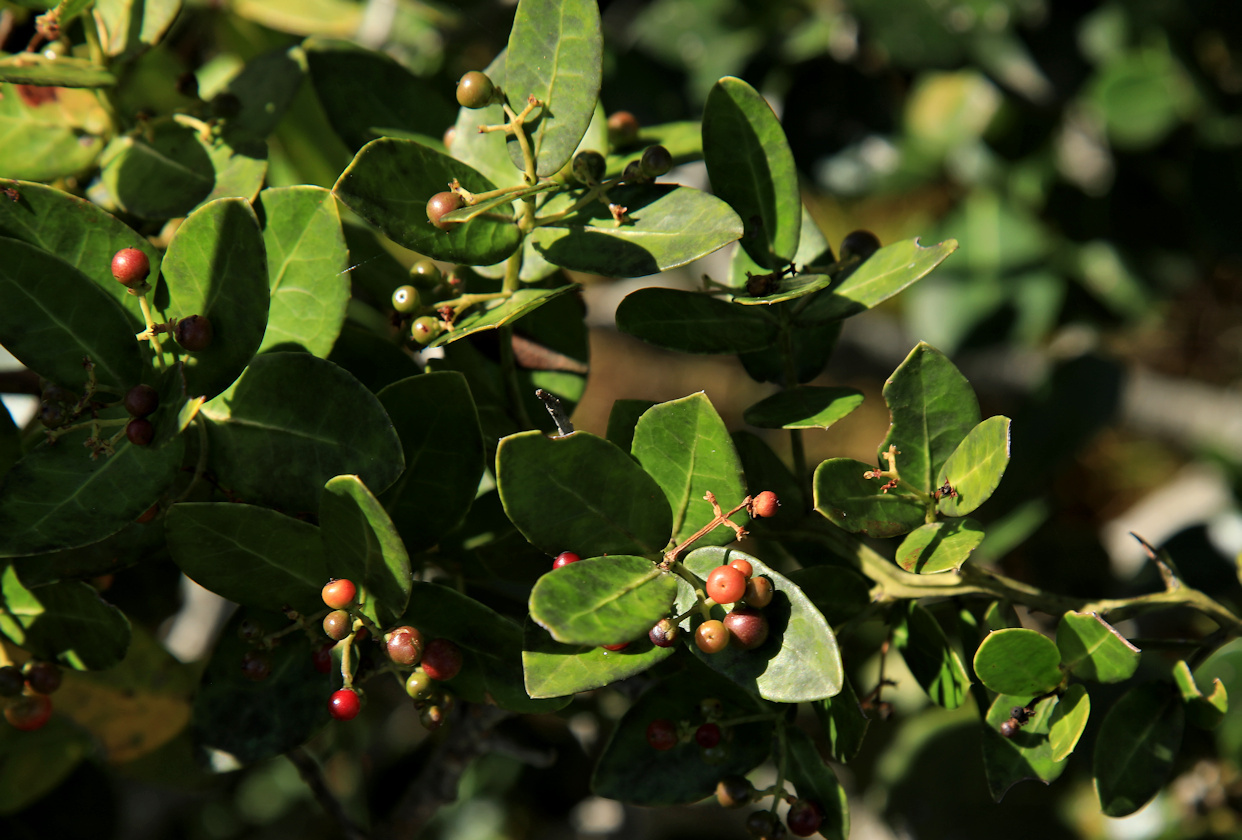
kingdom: Plantae
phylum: Tracheophyta
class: Magnoliopsida
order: Celastrales
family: Celastraceae
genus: Lauridia
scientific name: Lauridia tetragona
